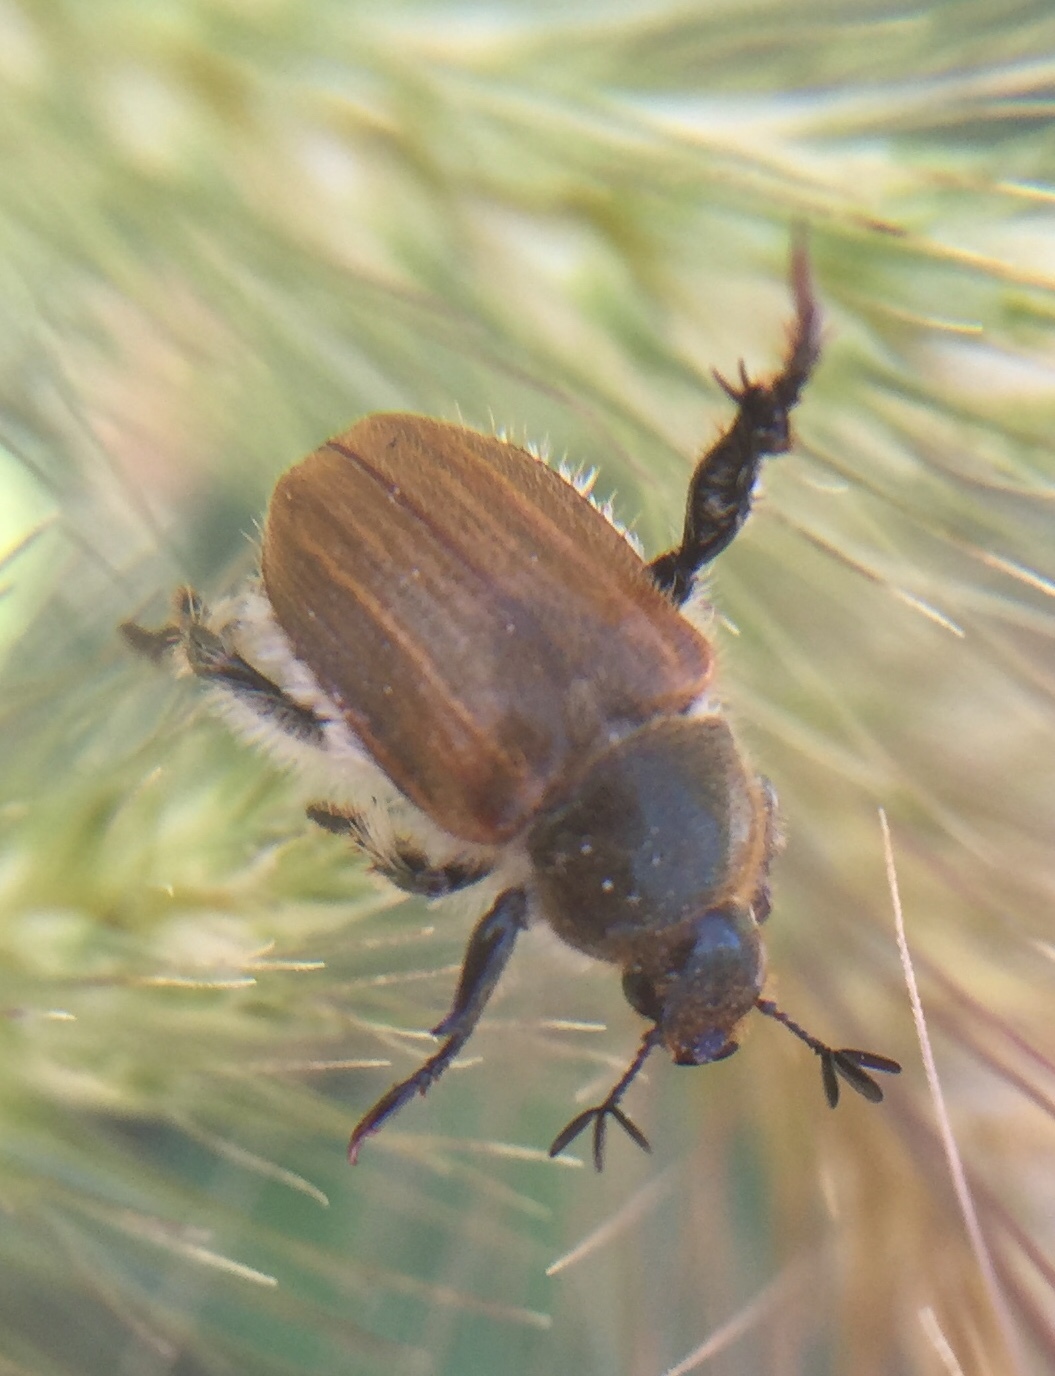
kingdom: Animalia
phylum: Arthropoda
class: Insecta
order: Coleoptera
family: Scarabaeidae
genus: Chaetopteroplia
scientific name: Chaetopteroplia segetum
